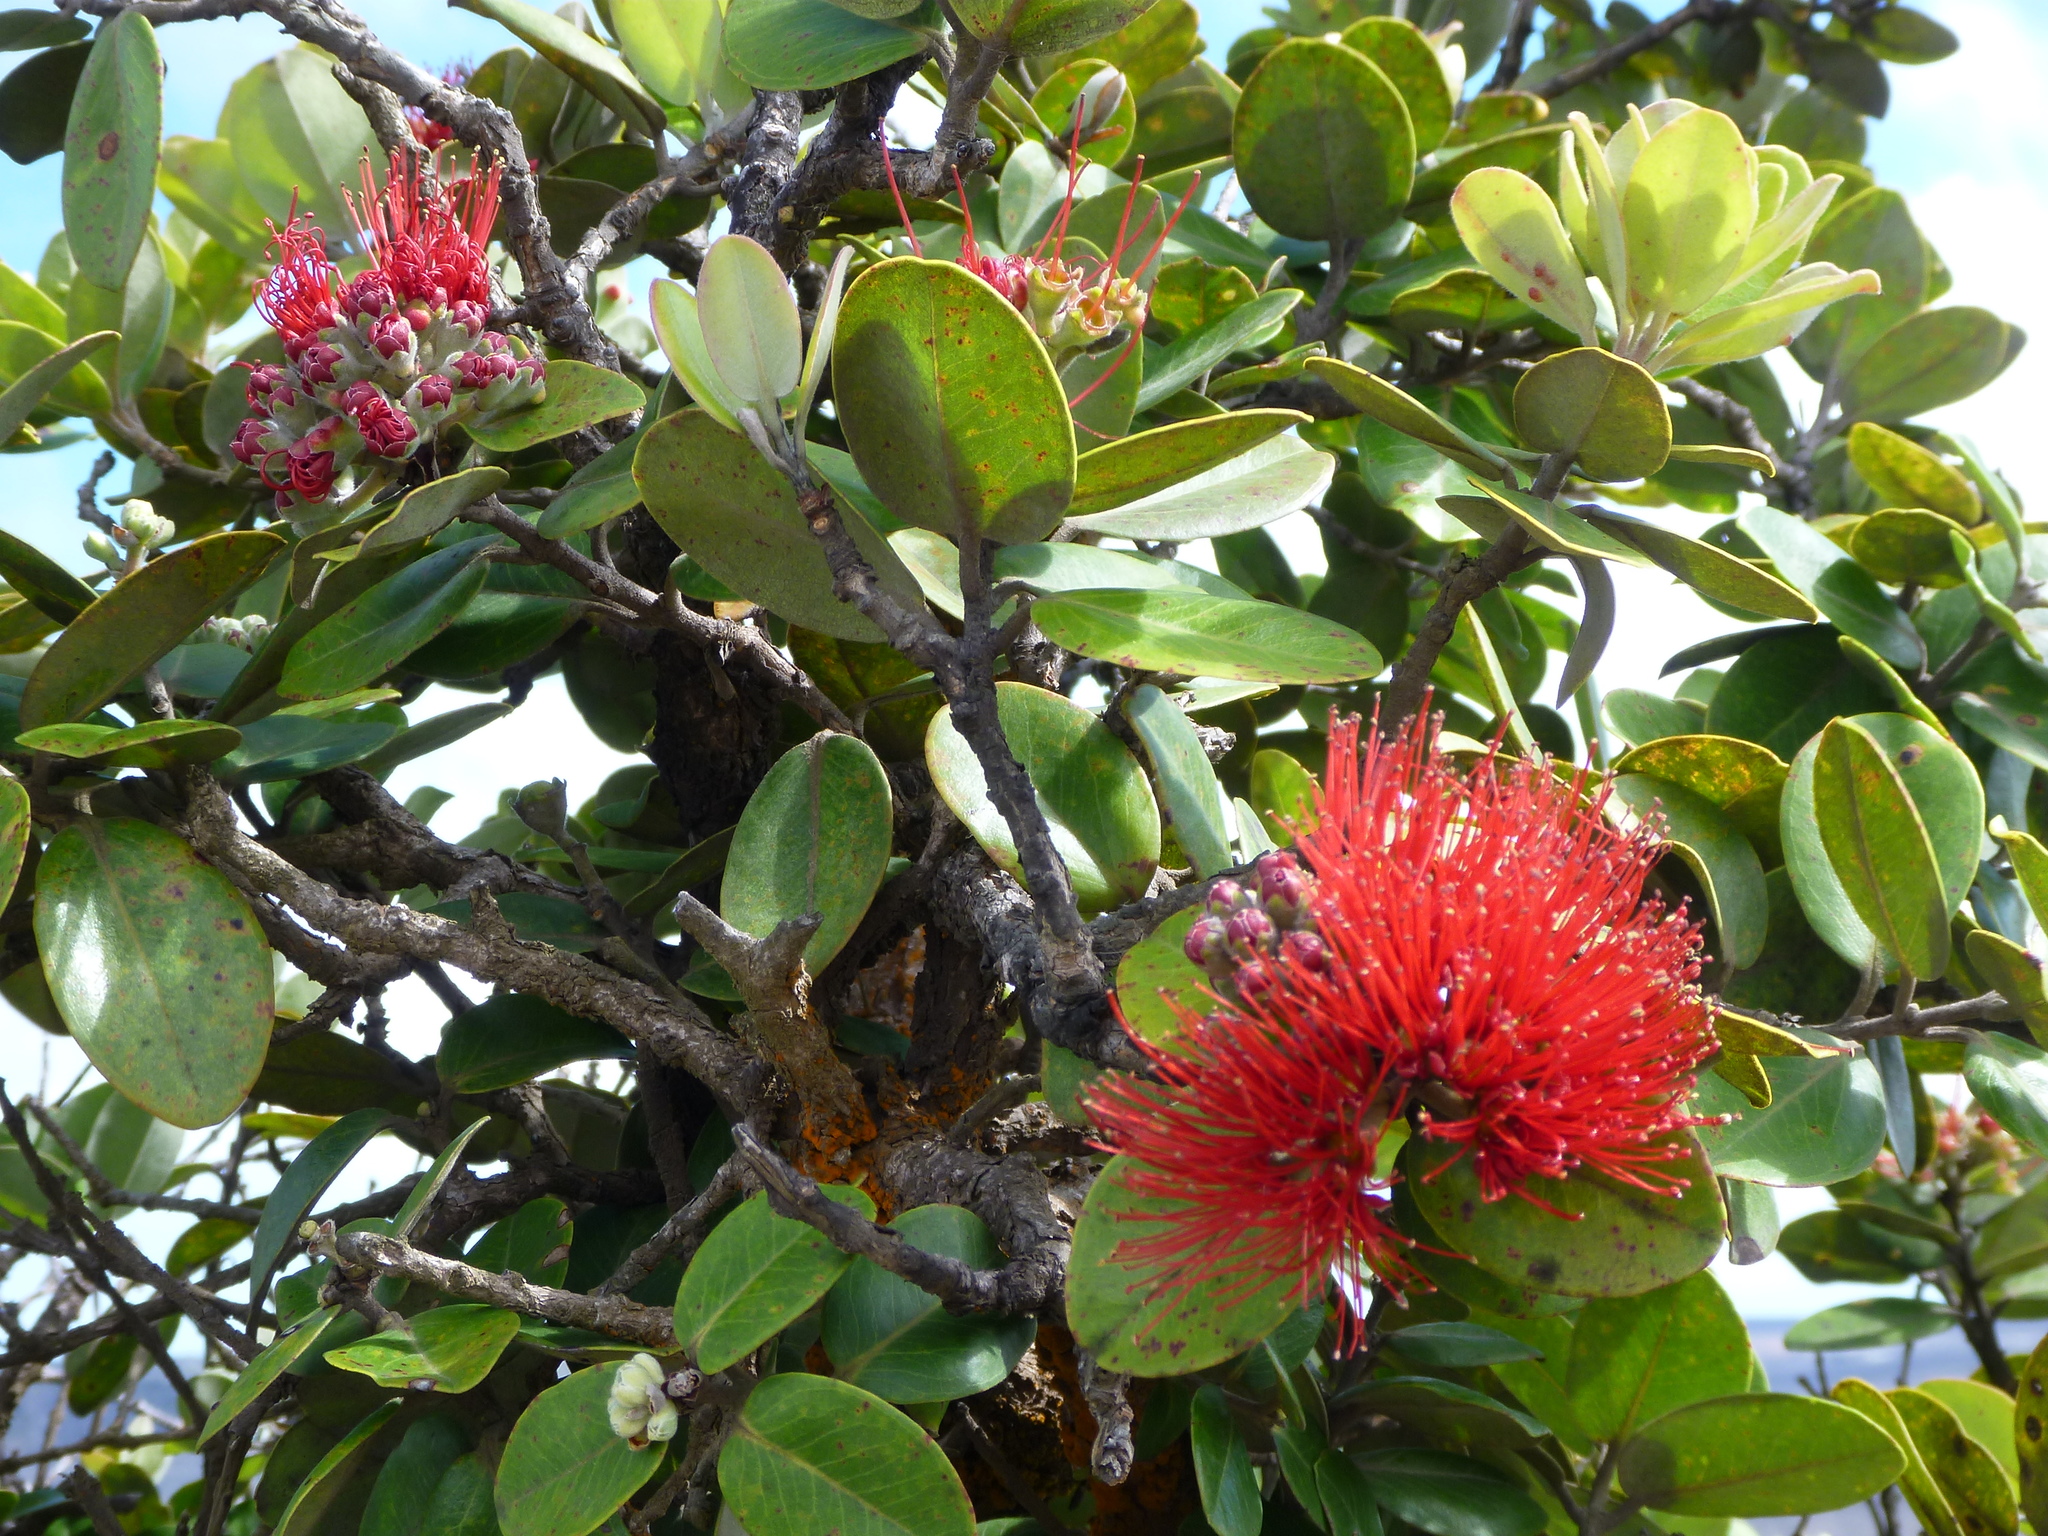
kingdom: Plantae
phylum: Tracheophyta
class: Magnoliopsida
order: Myrtales
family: Myrtaceae
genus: Metrosideros
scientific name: Metrosideros polymorpha
